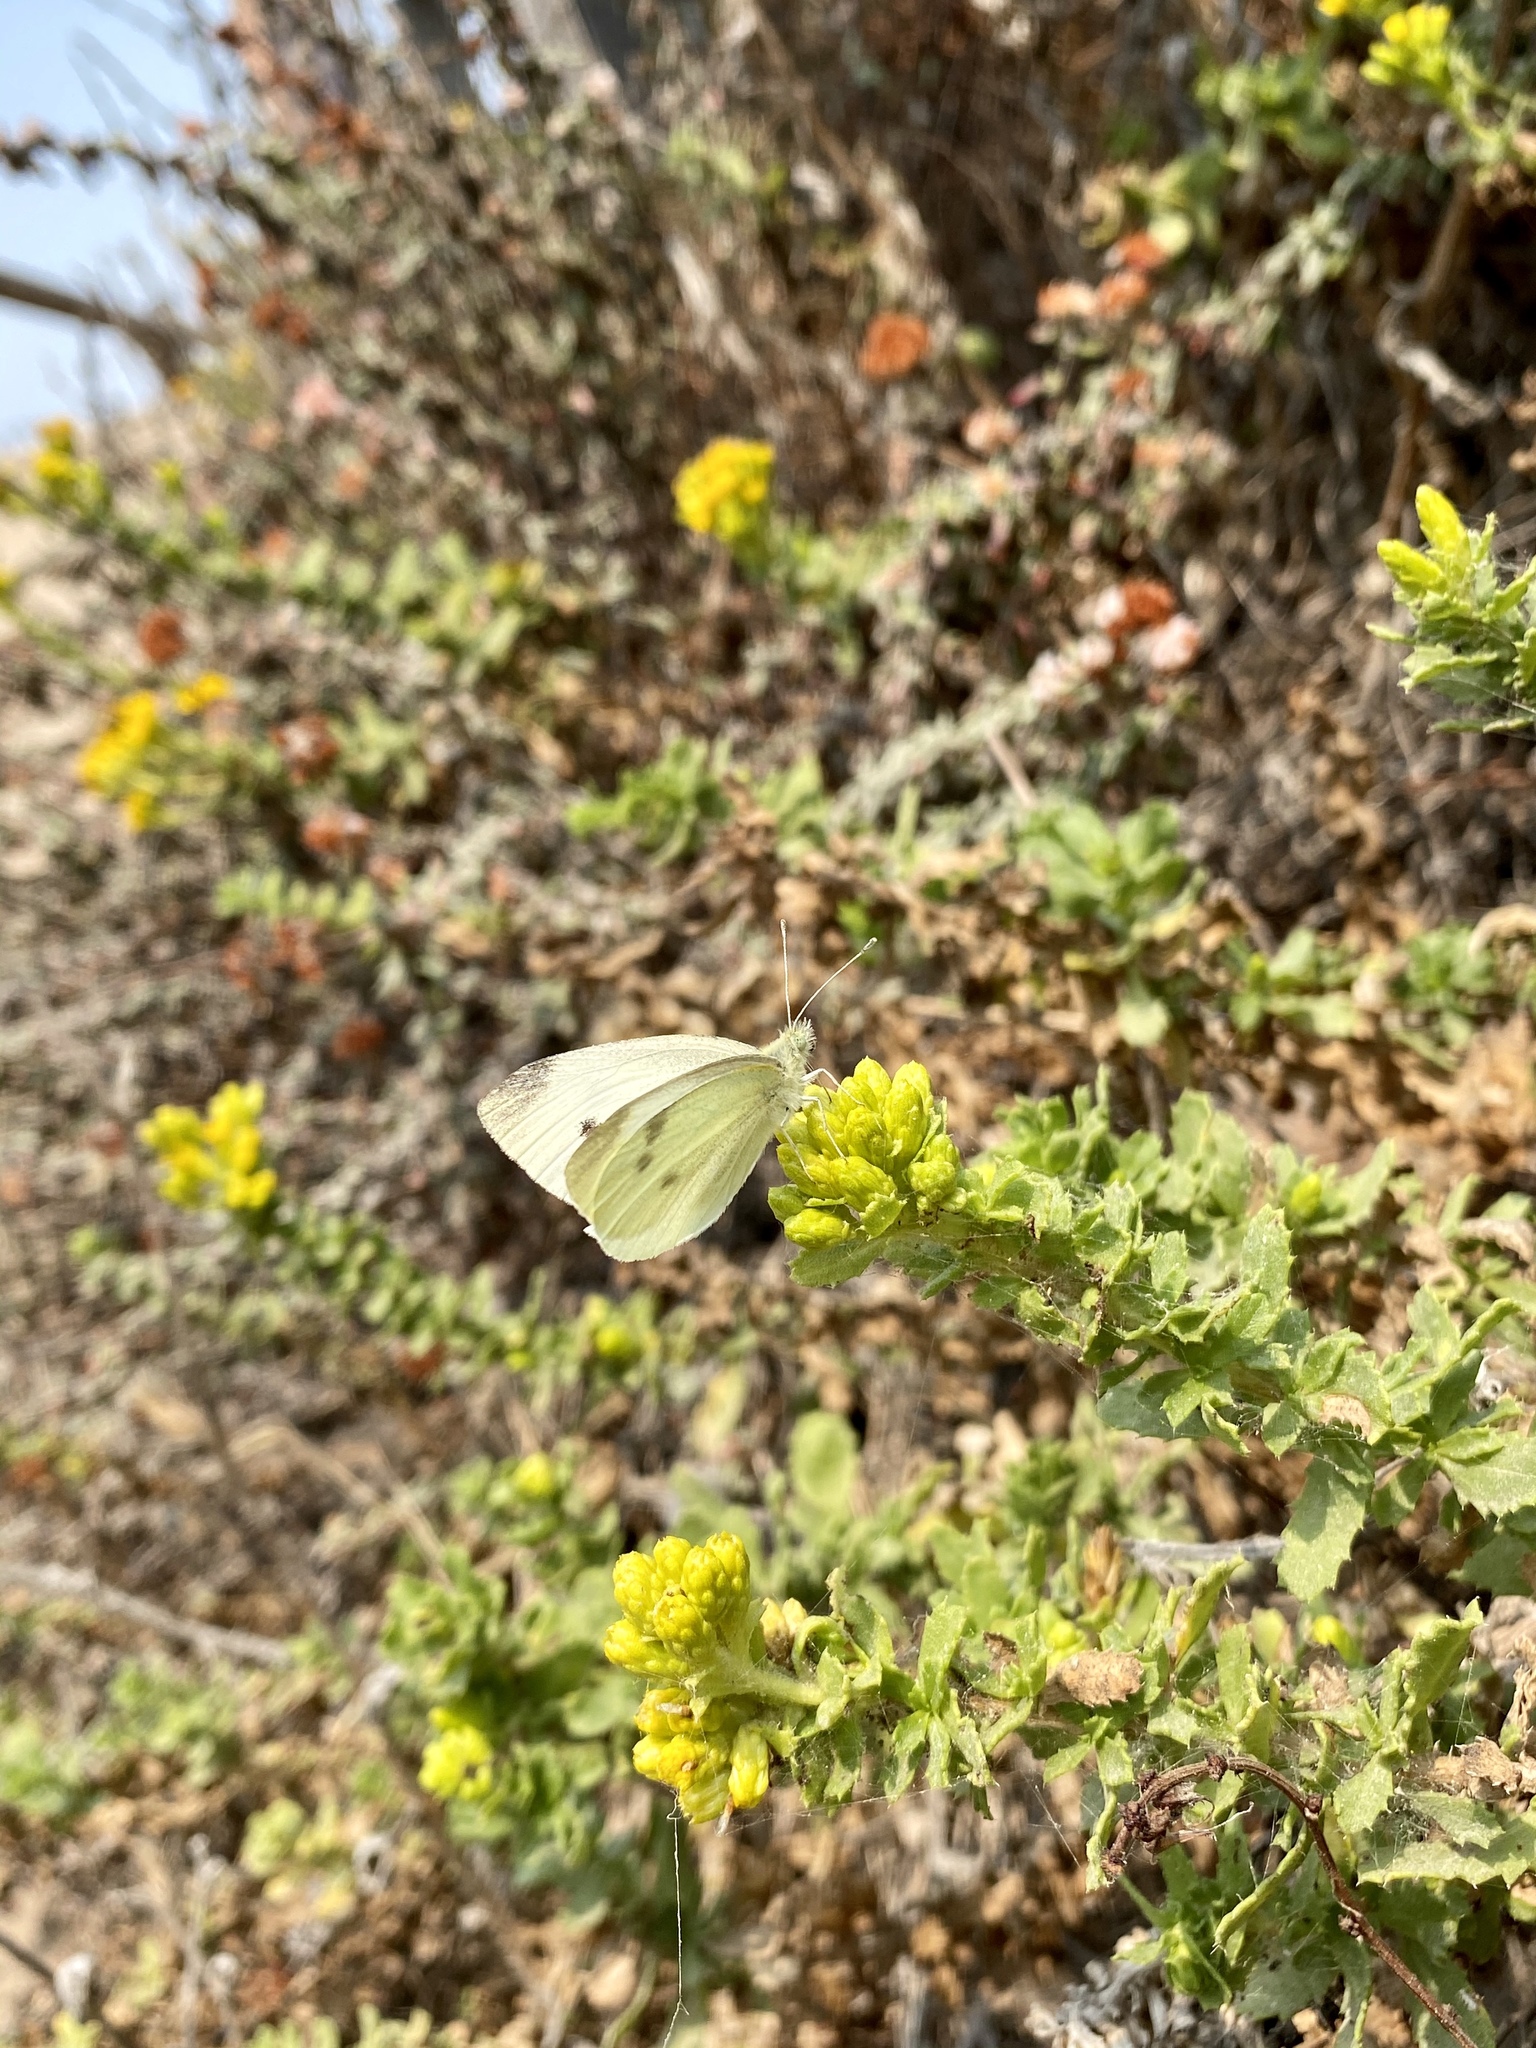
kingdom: Animalia
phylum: Arthropoda
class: Insecta
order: Lepidoptera
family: Pieridae
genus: Pieris
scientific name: Pieris rapae
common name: Small white
